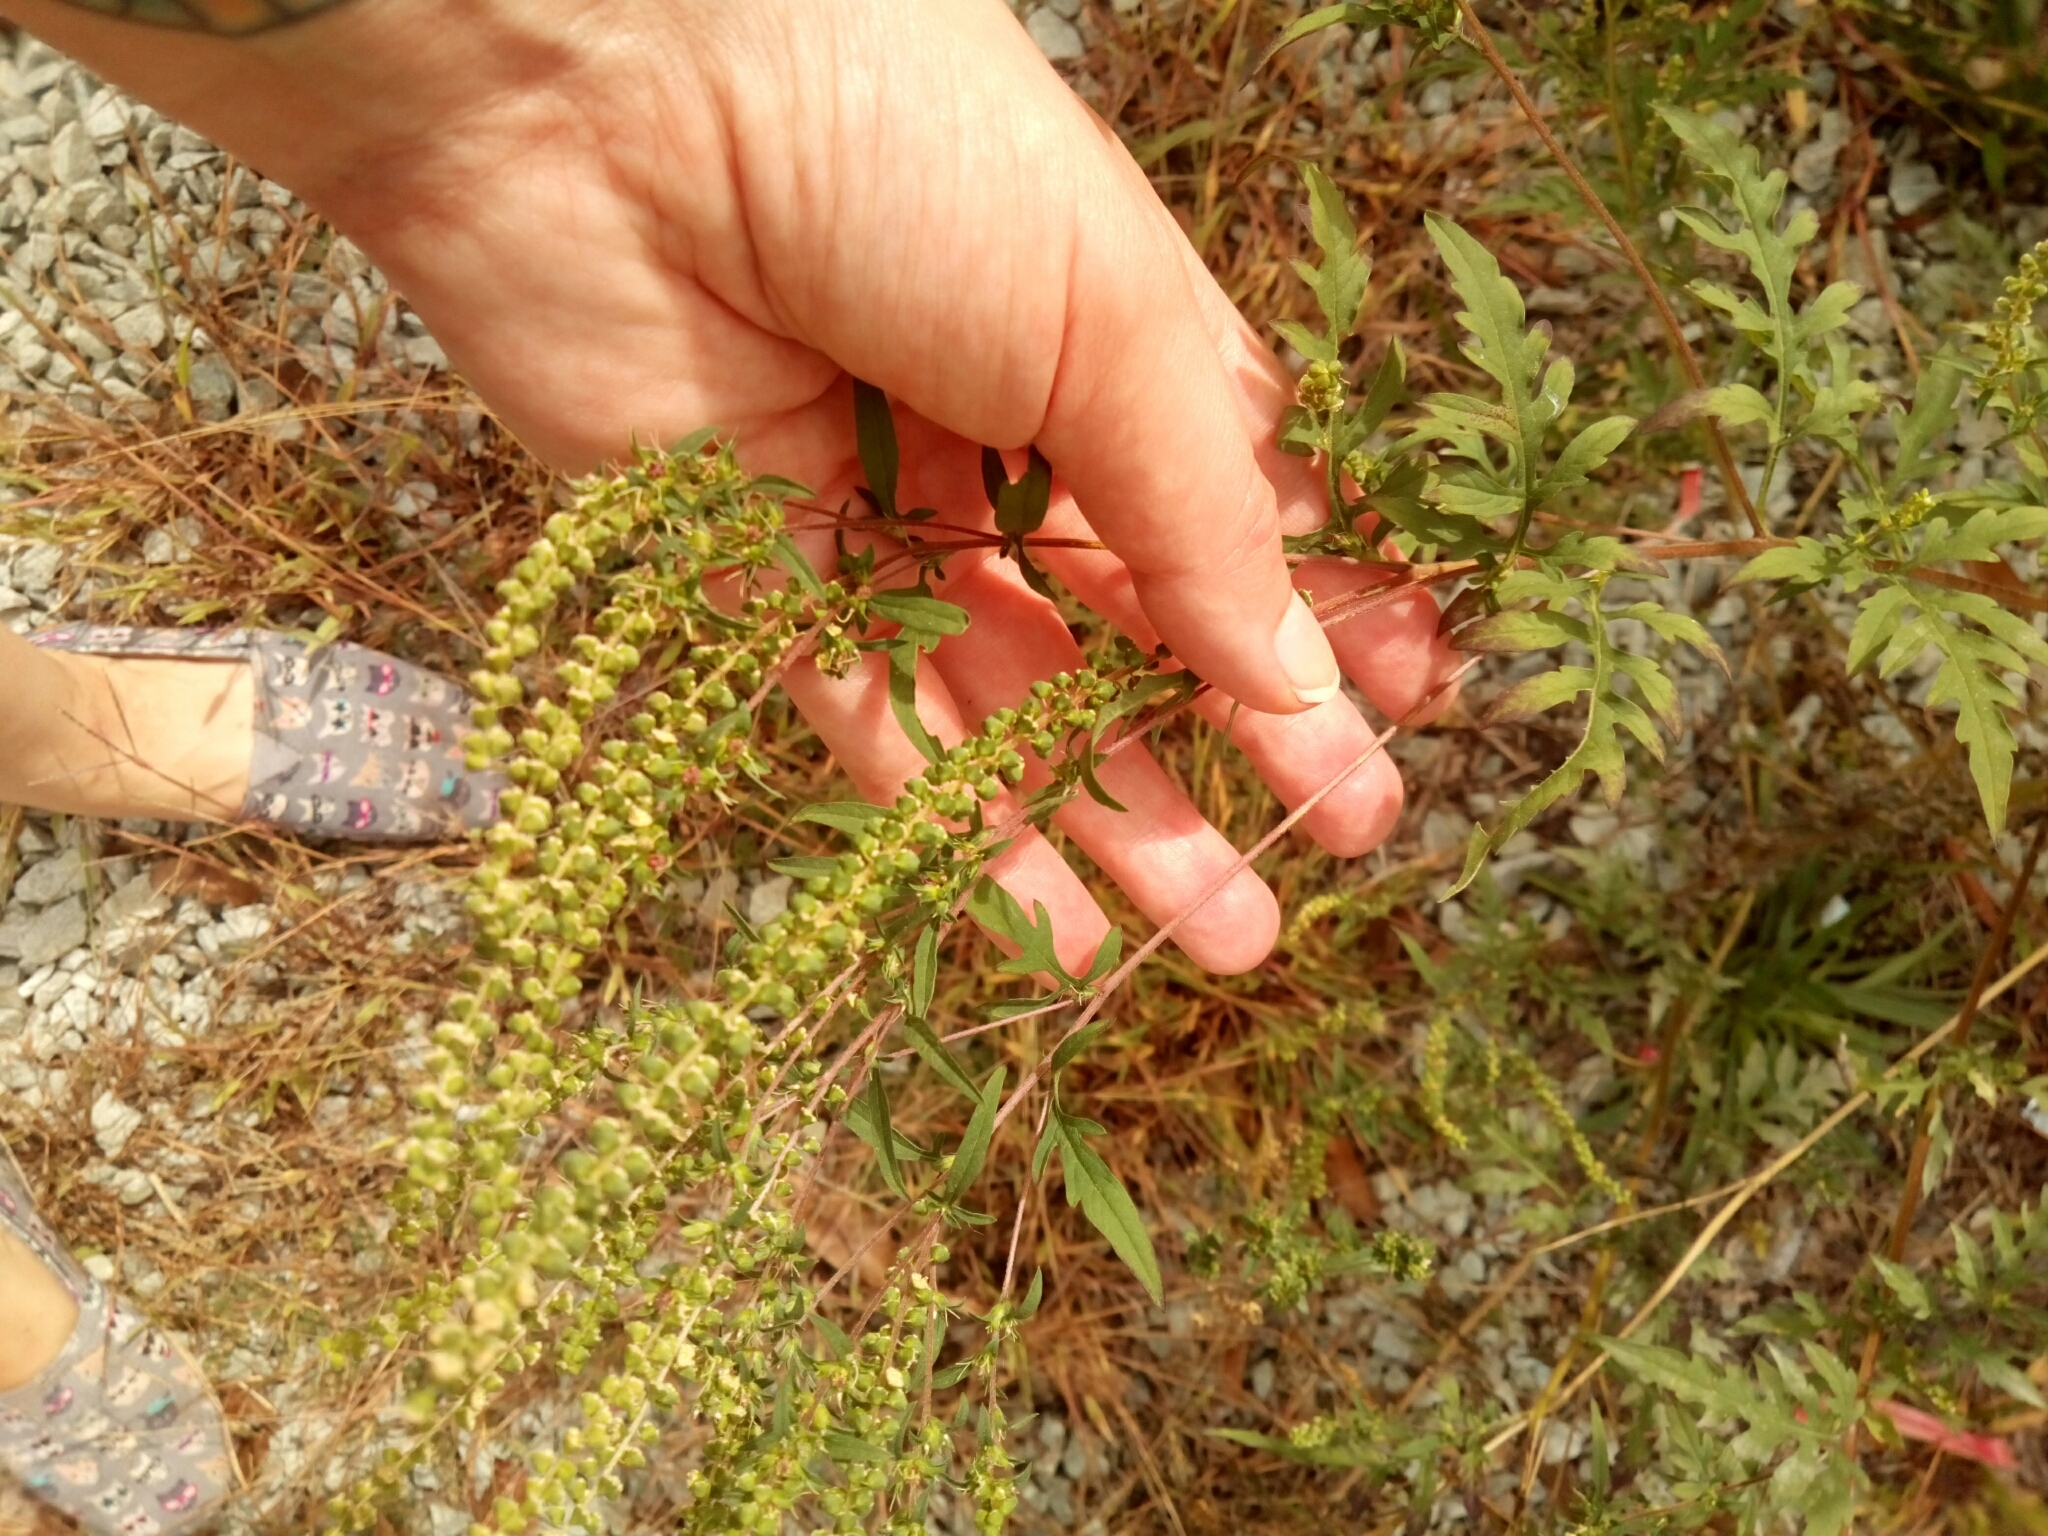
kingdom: Plantae
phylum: Tracheophyta
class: Magnoliopsida
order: Asterales
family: Asteraceae
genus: Ambrosia
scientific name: Ambrosia artemisiifolia
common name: Annual ragweed
